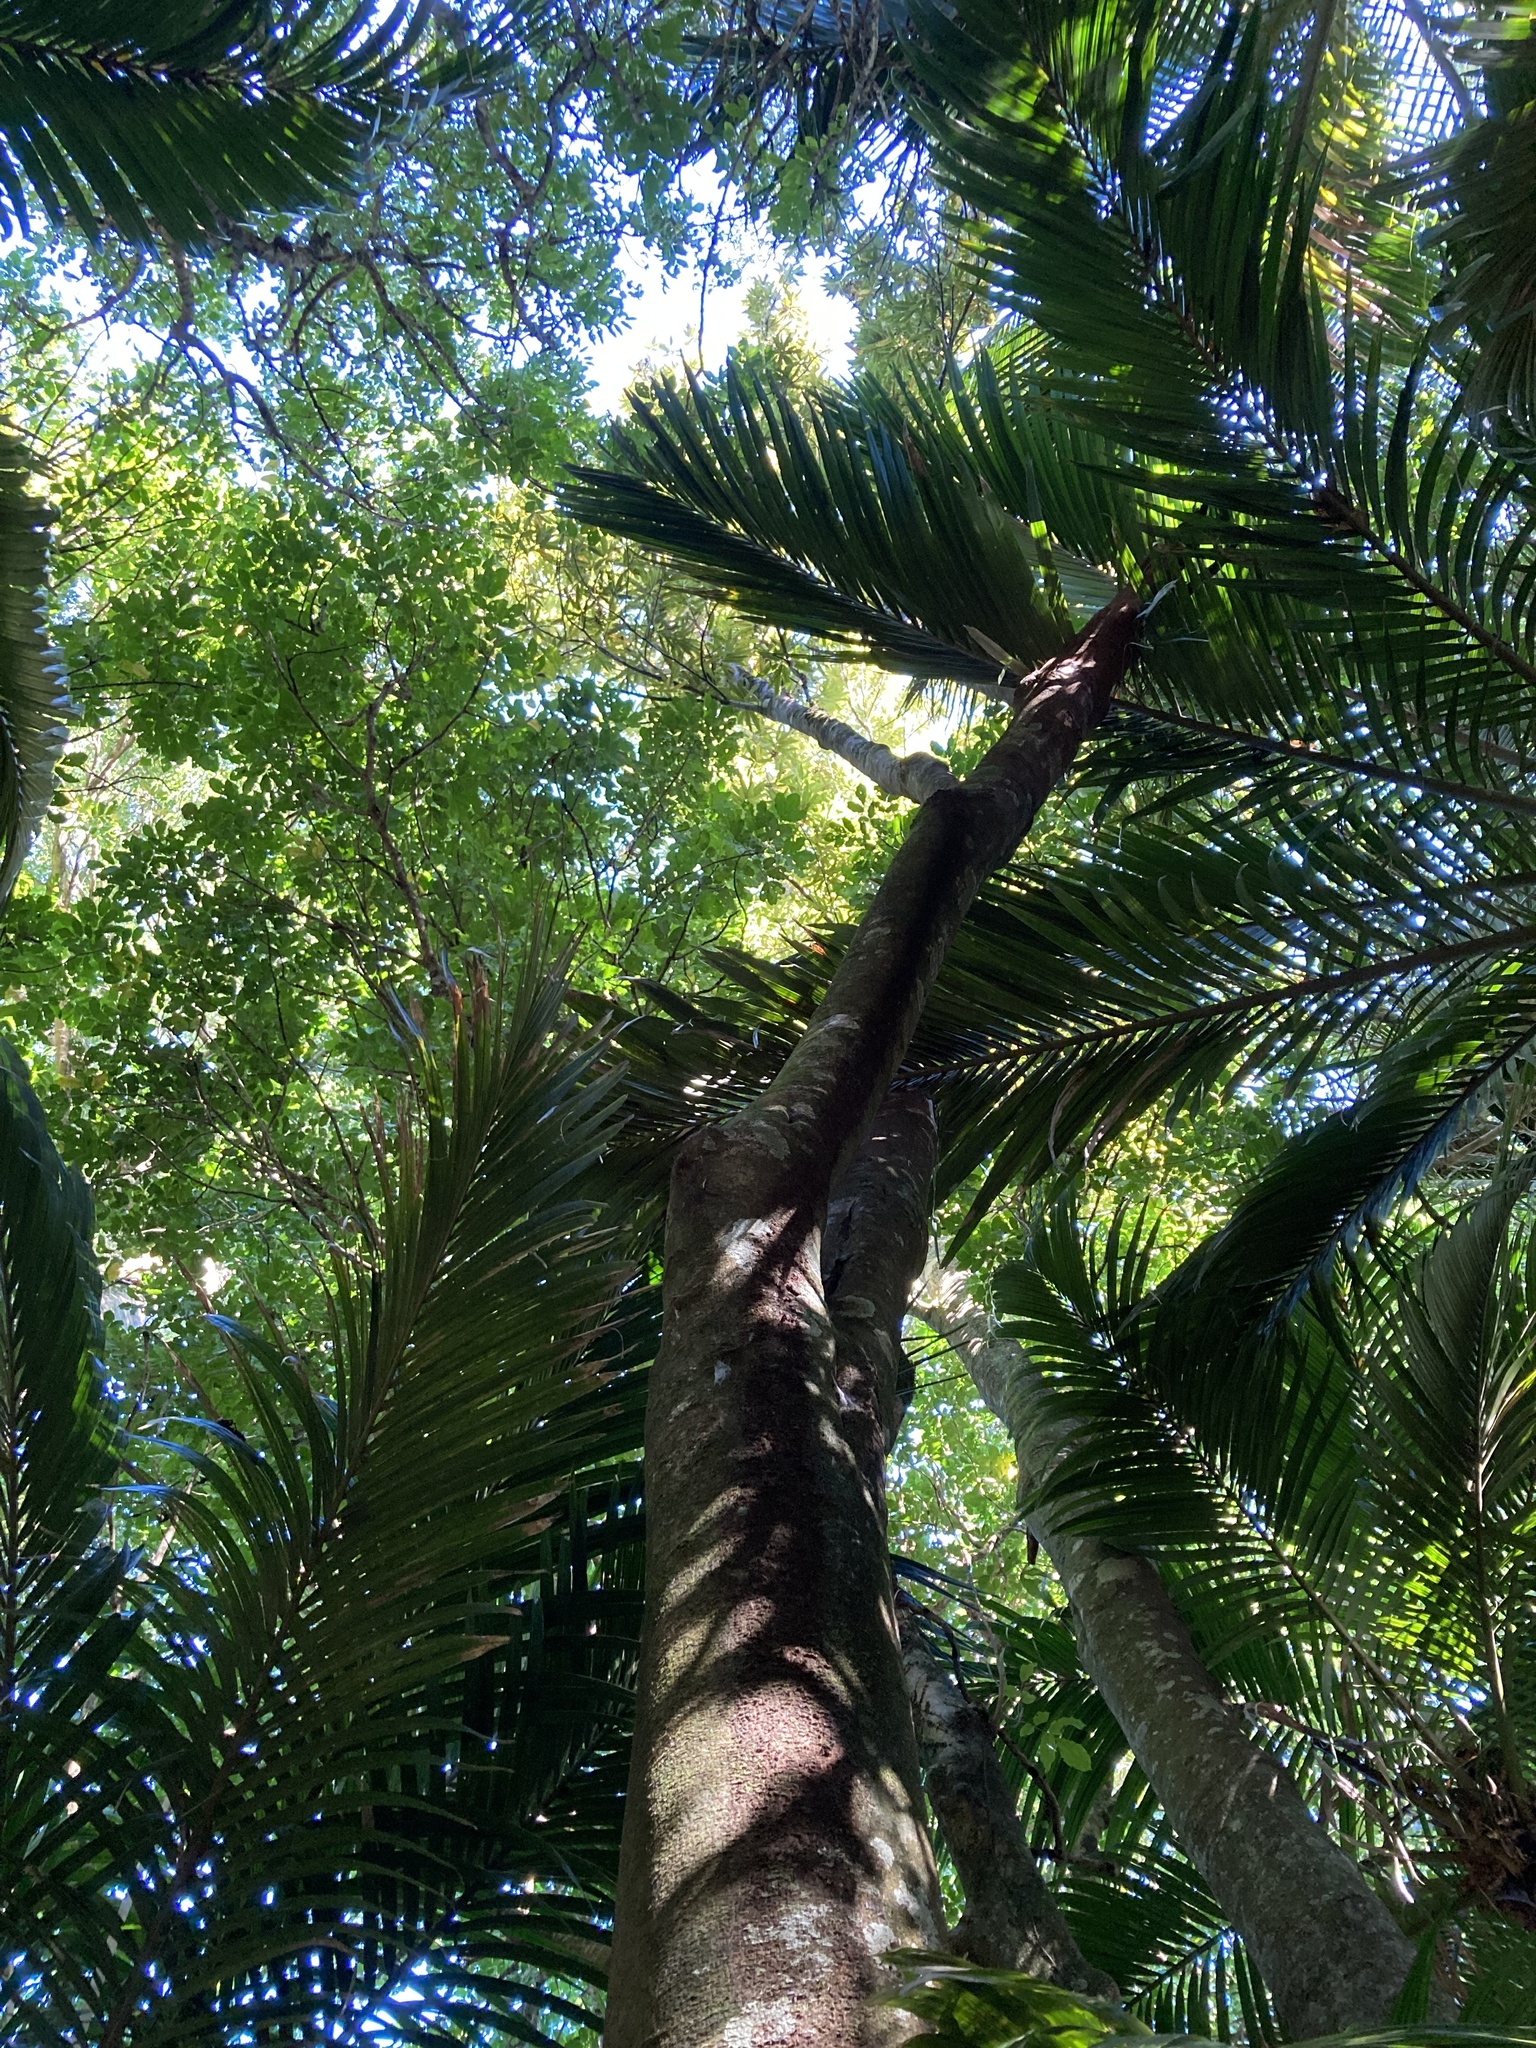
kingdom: Plantae
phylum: Tracheophyta
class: Magnoliopsida
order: Proteales
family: Proteaceae
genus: Knightia
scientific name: Knightia excelsa
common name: New zealand-honeysuckle
